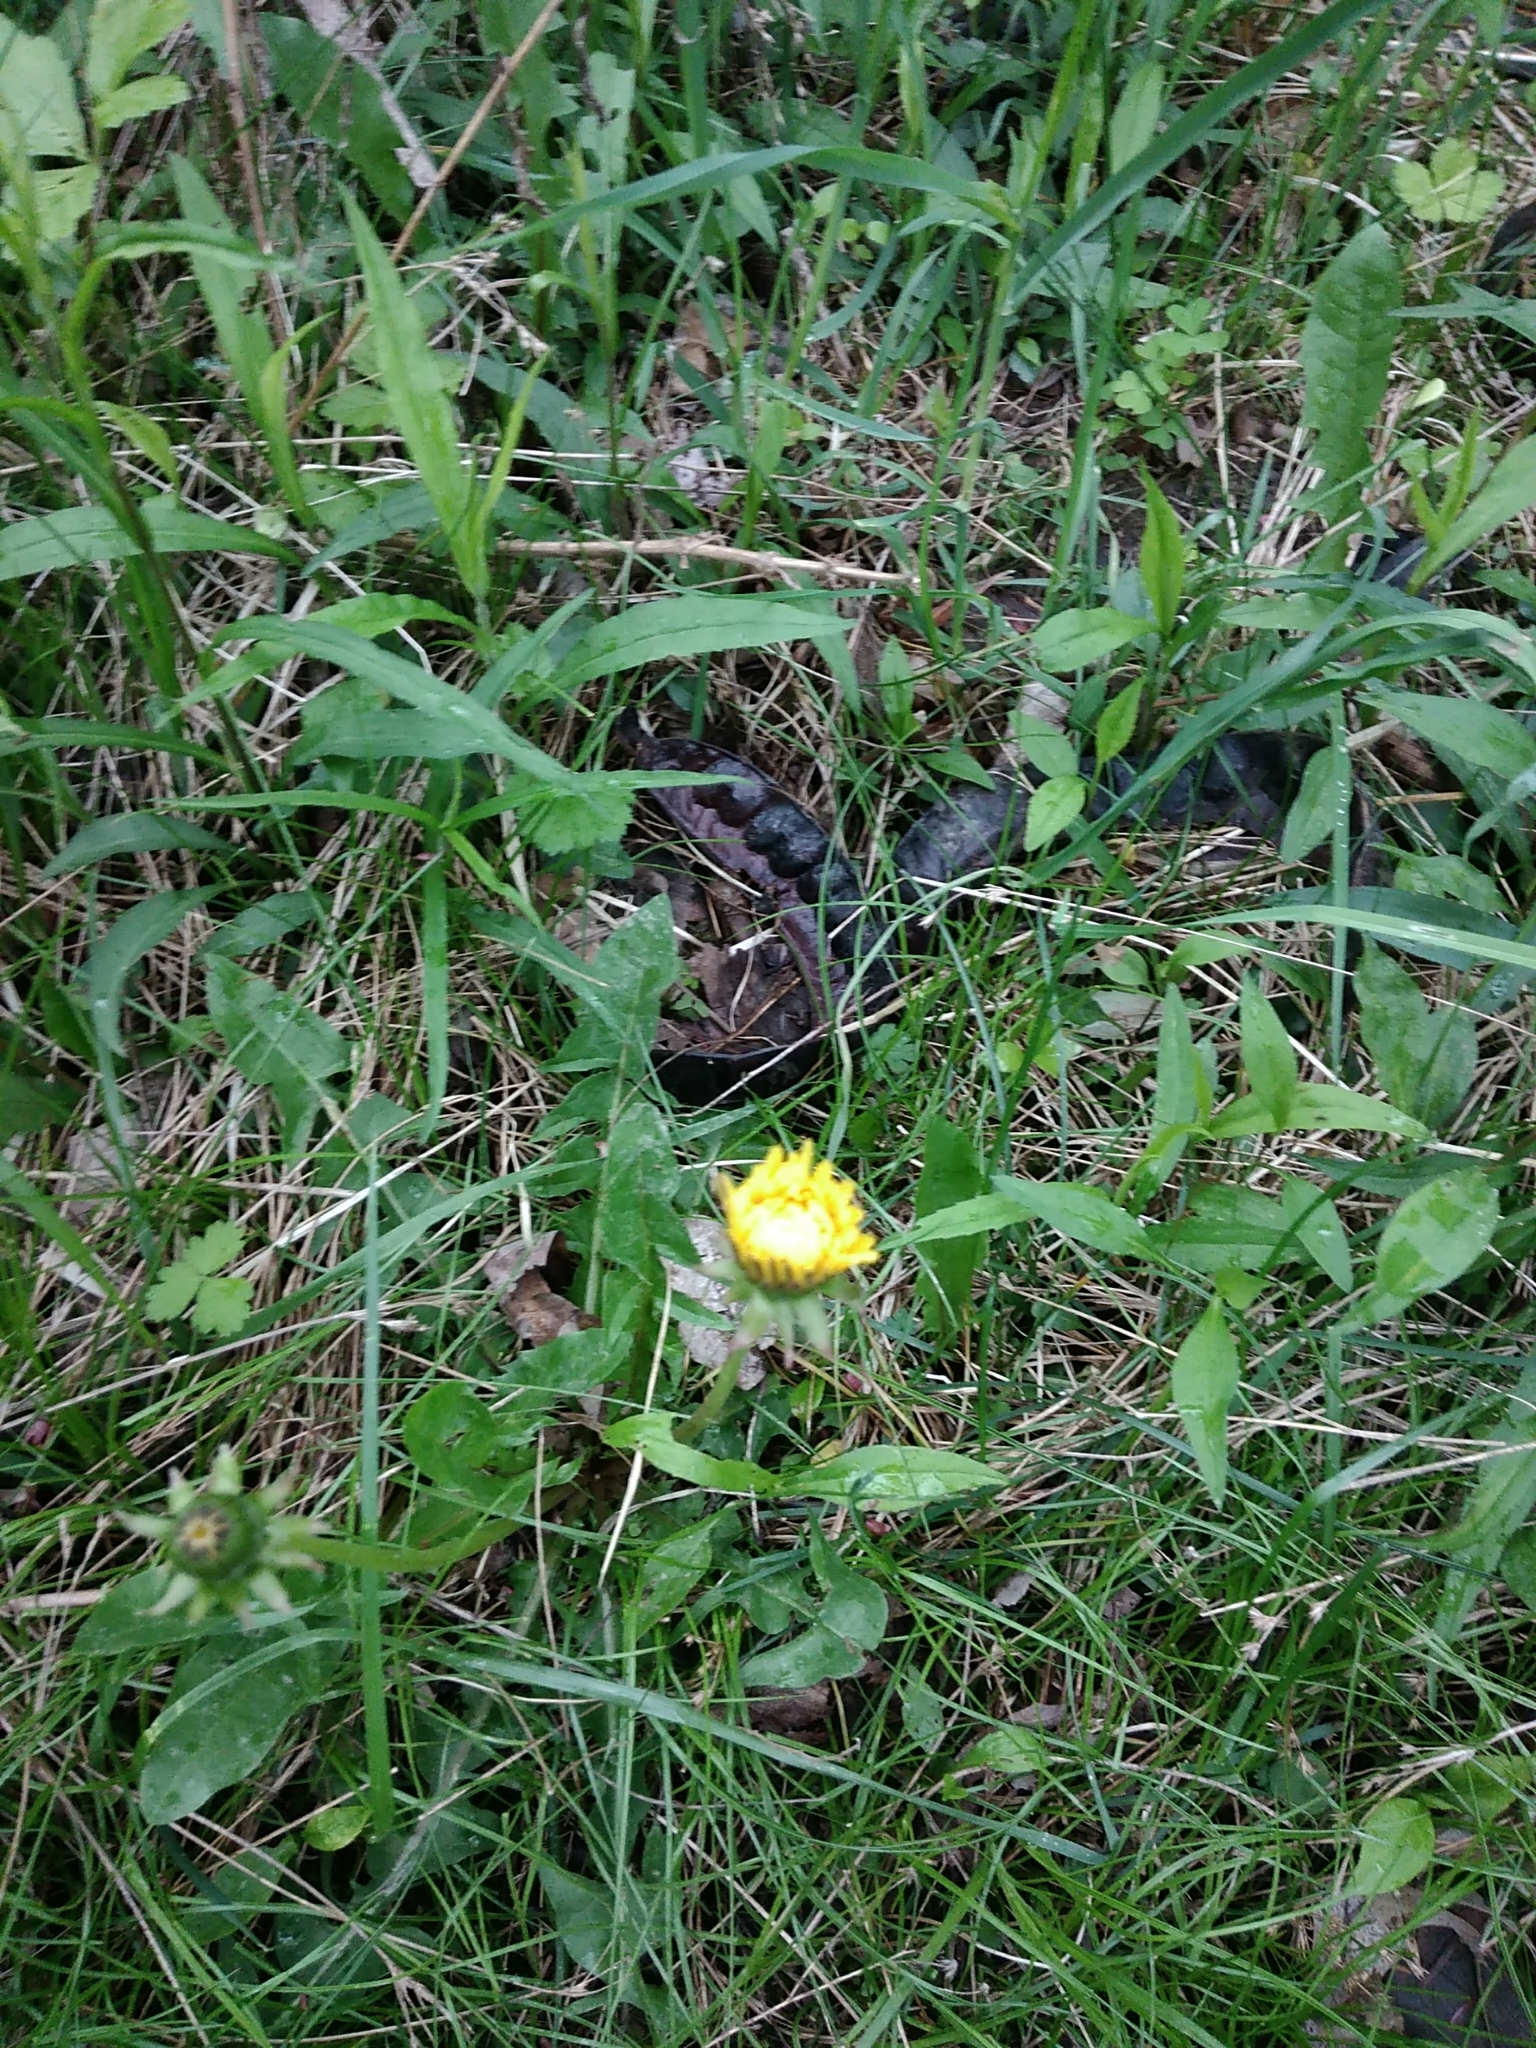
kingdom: Plantae
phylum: Tracheophyta
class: Magnoliopsida
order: Asterales
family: Asteraceae
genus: Taraxacum
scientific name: Taraxacum officinale
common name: Common dandelion
